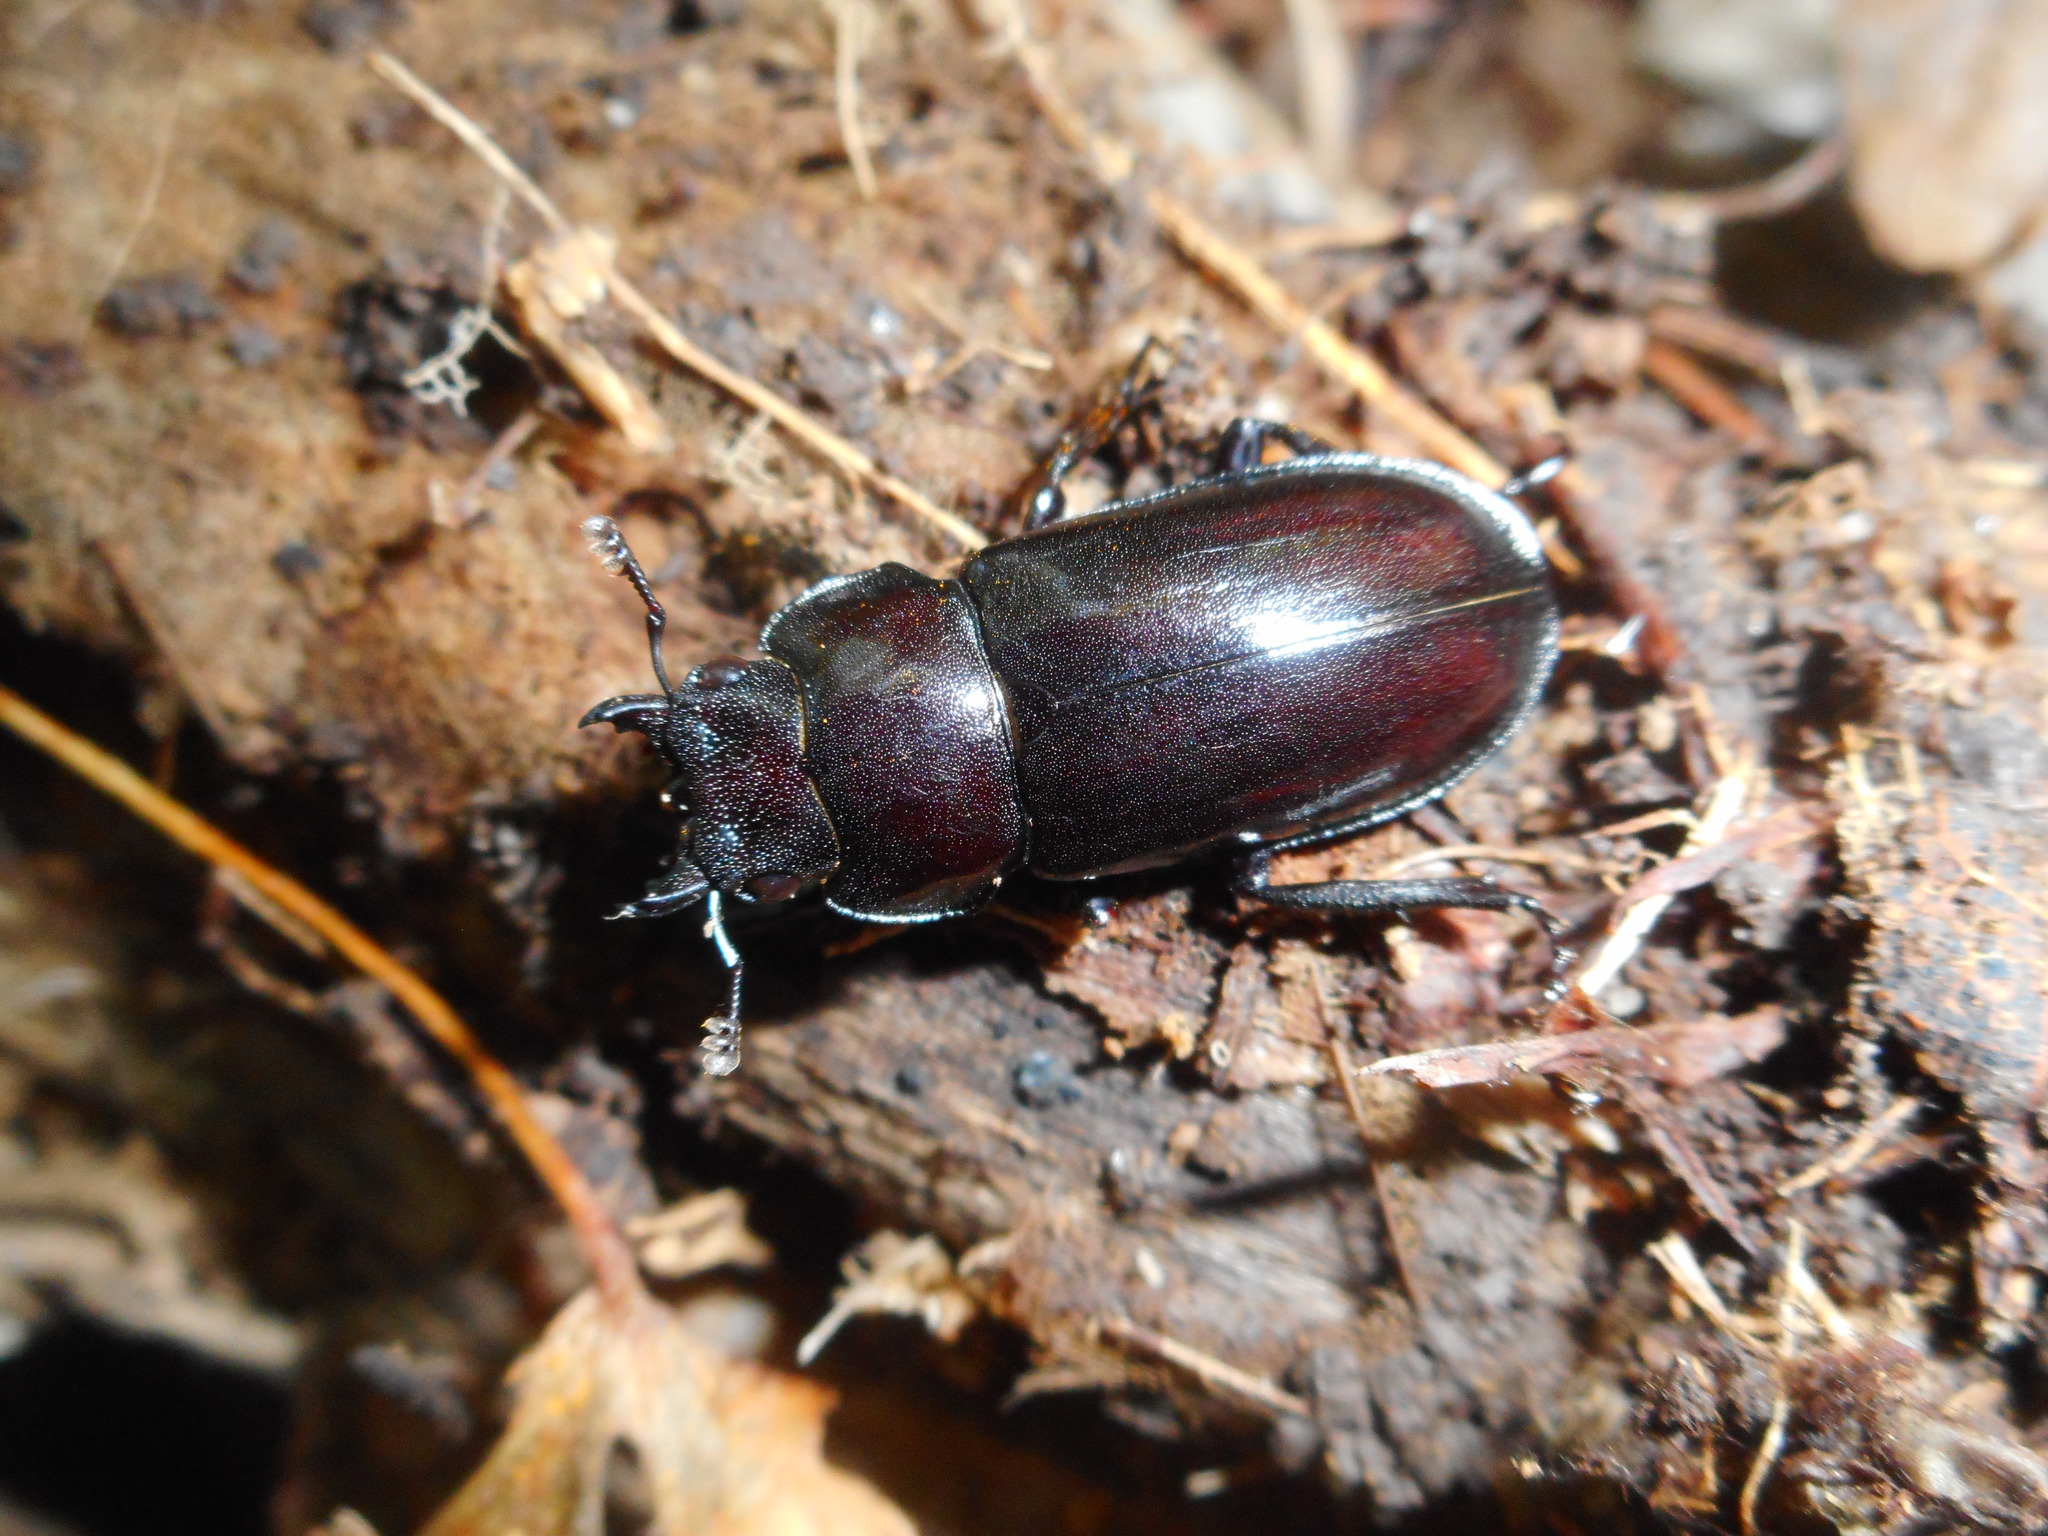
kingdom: Animalia
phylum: Arthropoda
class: Insecta
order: Coleoptera
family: Lucanidae
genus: Prismognathus
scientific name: Prismognathus dauricus
